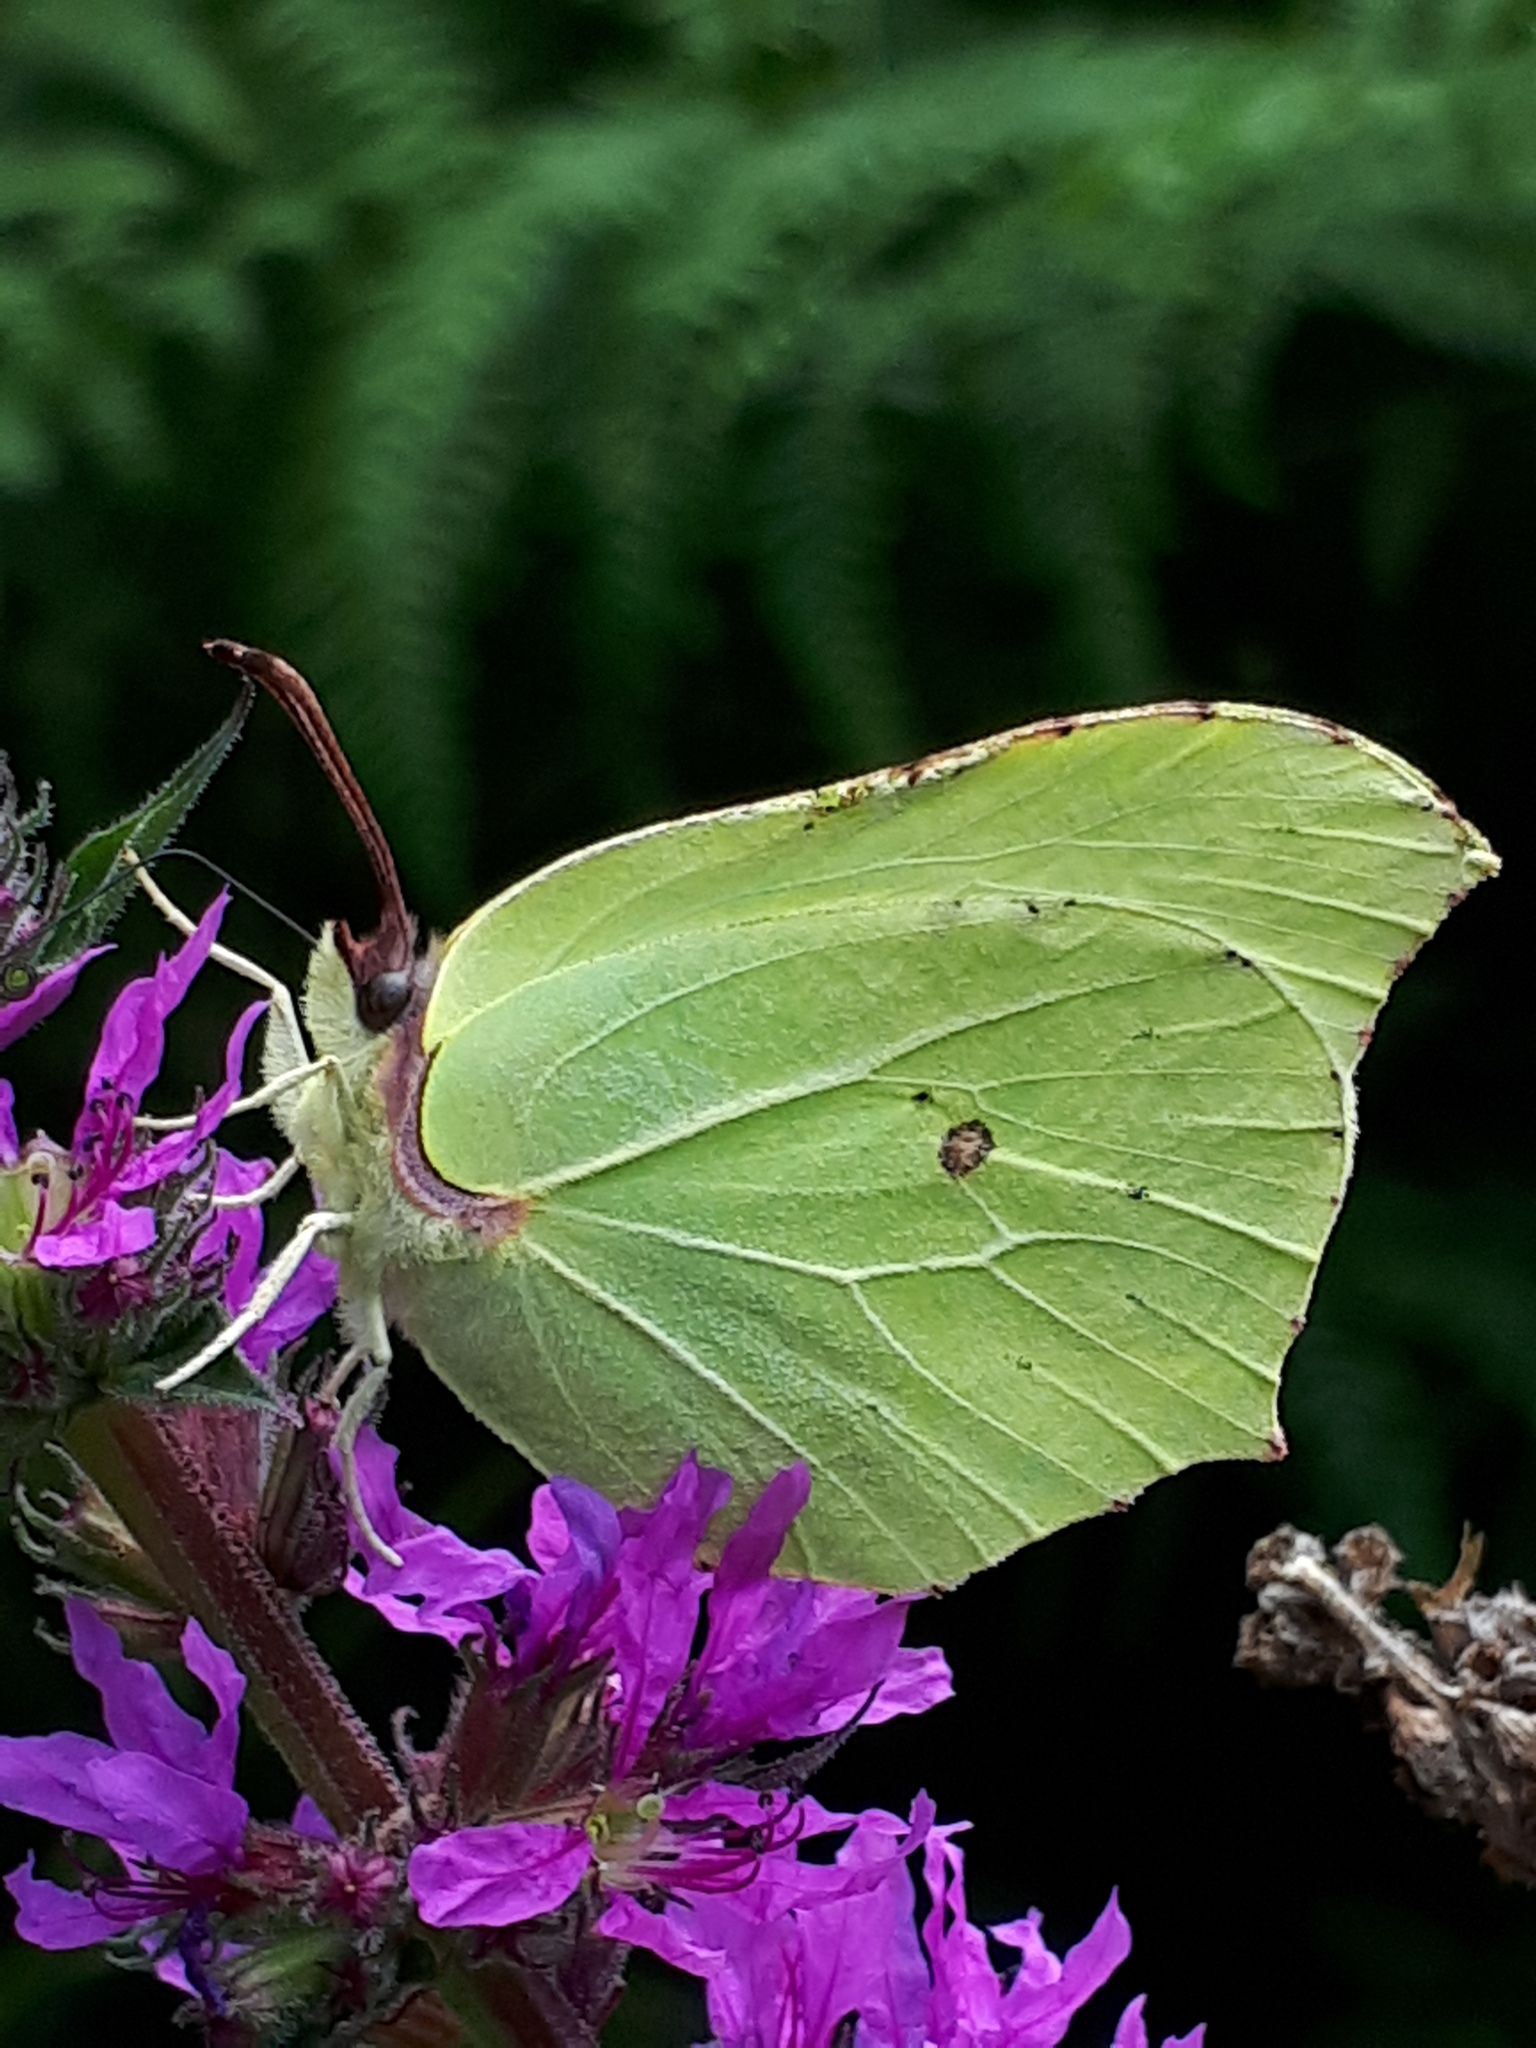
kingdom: Animalia
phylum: Arthropoda
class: Insecta
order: Lepidoptera
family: Pieridae
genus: Gonepteryx
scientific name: Gonepteryx rhamni
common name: Brimstone
